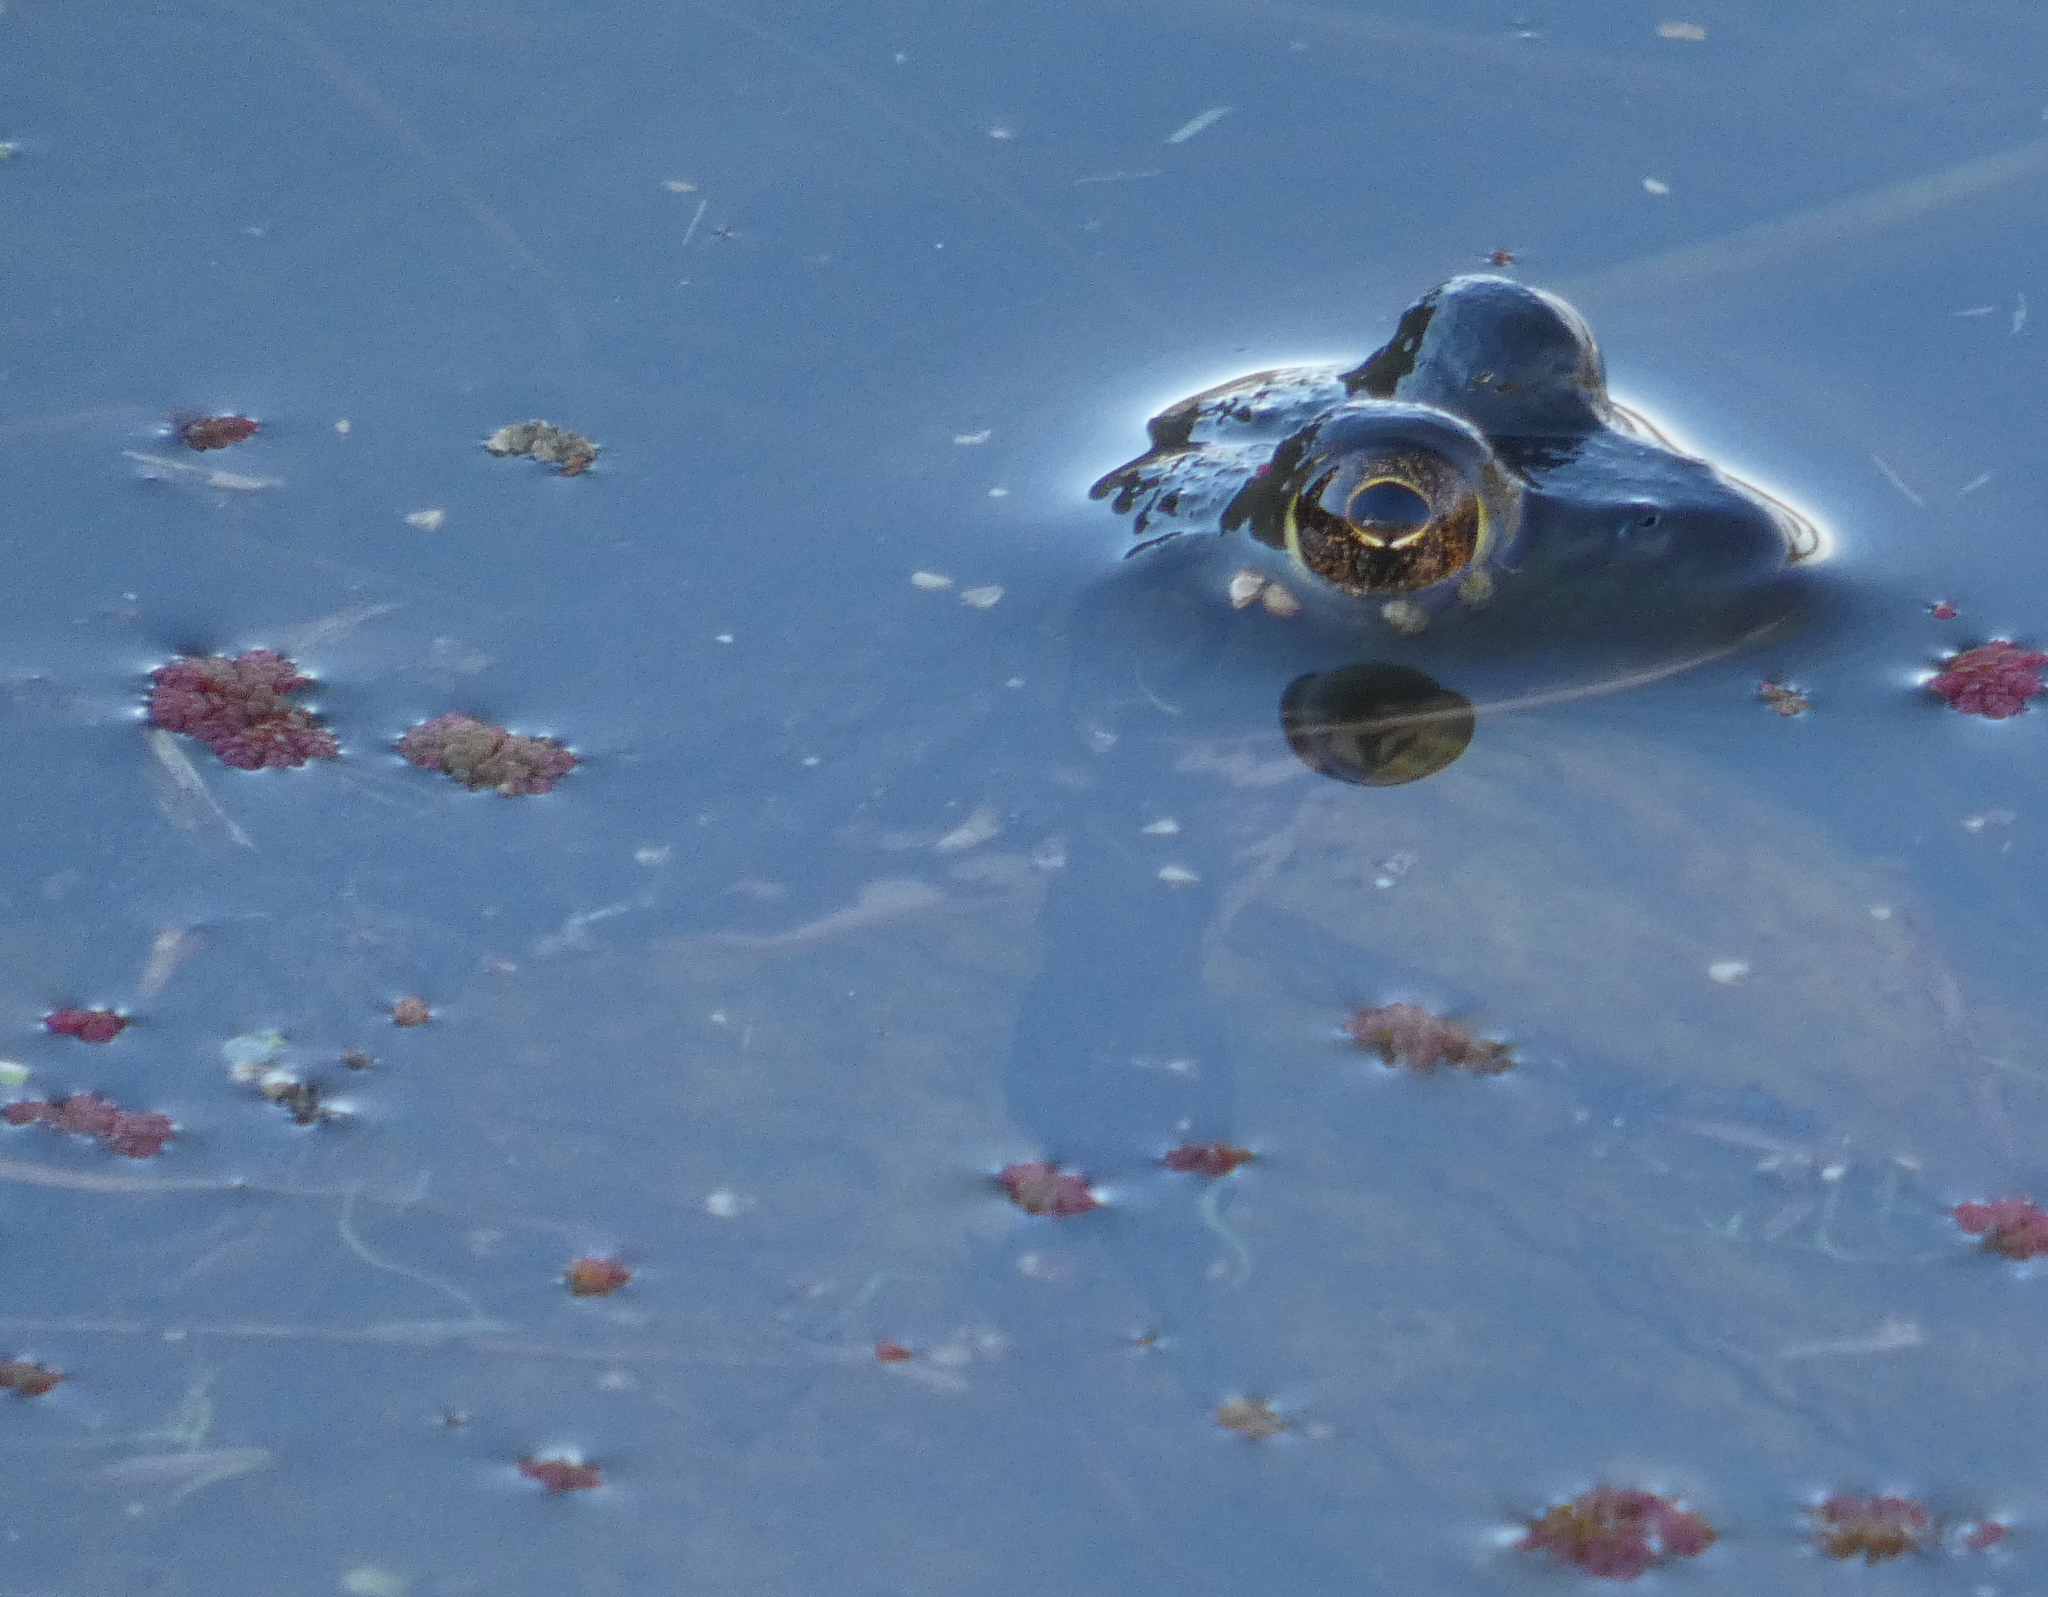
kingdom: Animalia
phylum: Chordata
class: Amphibia
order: Anura
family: Ranidae
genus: Lithobates
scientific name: Lithobates catesbeianus
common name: American bullfrog
